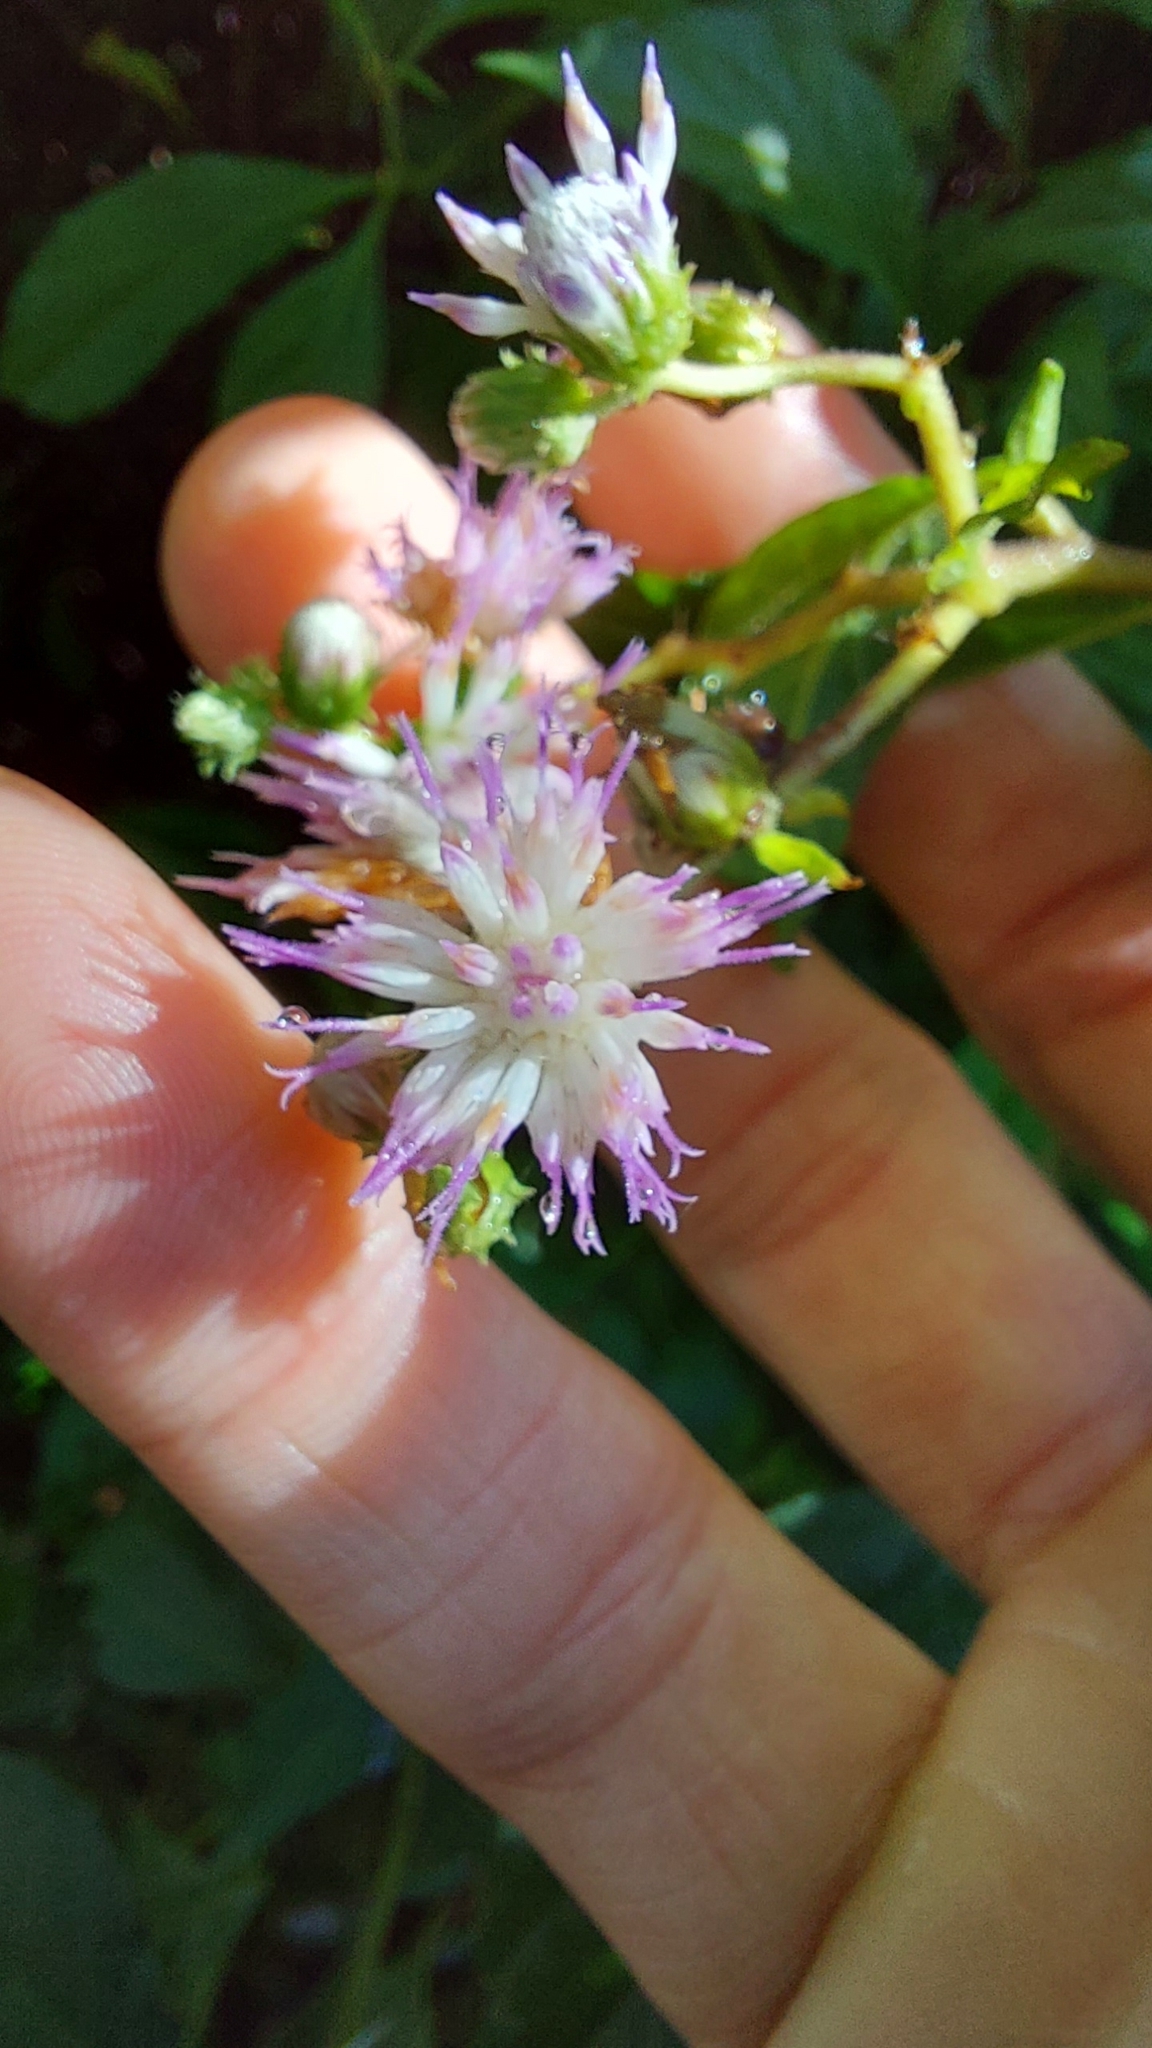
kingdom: Plantae
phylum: Tracheophyta
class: Magnoliopsida
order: Asterales
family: Asteraceae
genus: Cyrtocymura
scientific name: Cyrtocymura scorpioides
